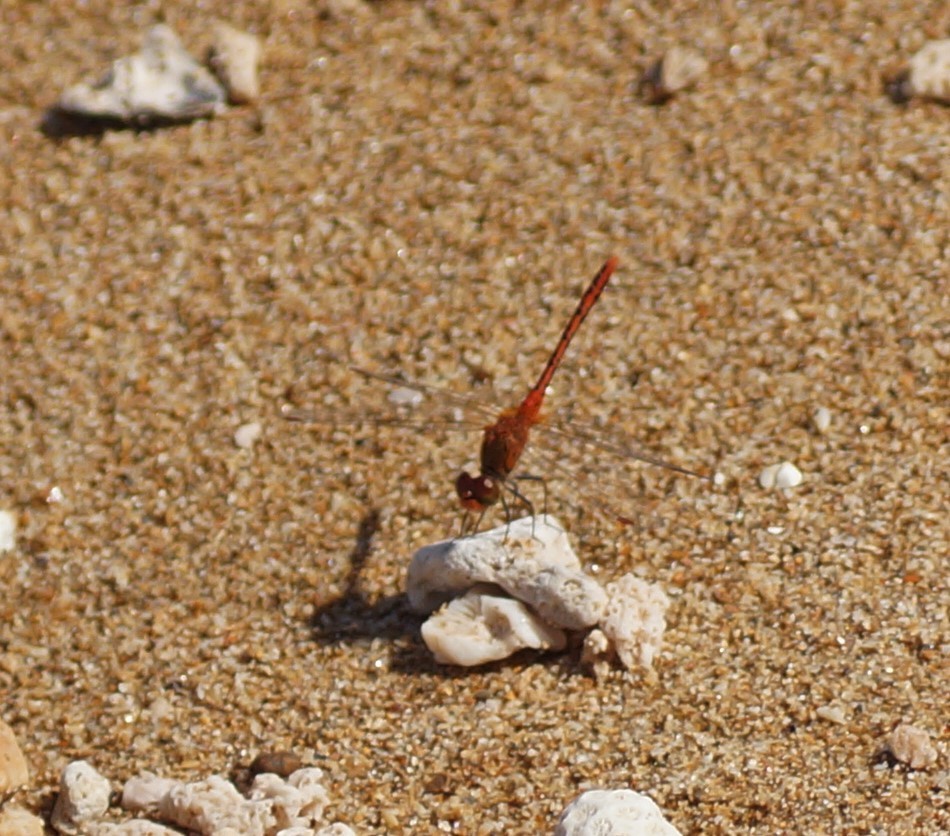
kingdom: Animalia
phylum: Arthropoda
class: Insecta
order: Odonata
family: Libellulidae
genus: Diplacodes
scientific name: Diplacodes bipunctata
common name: Red percher dragonfly
